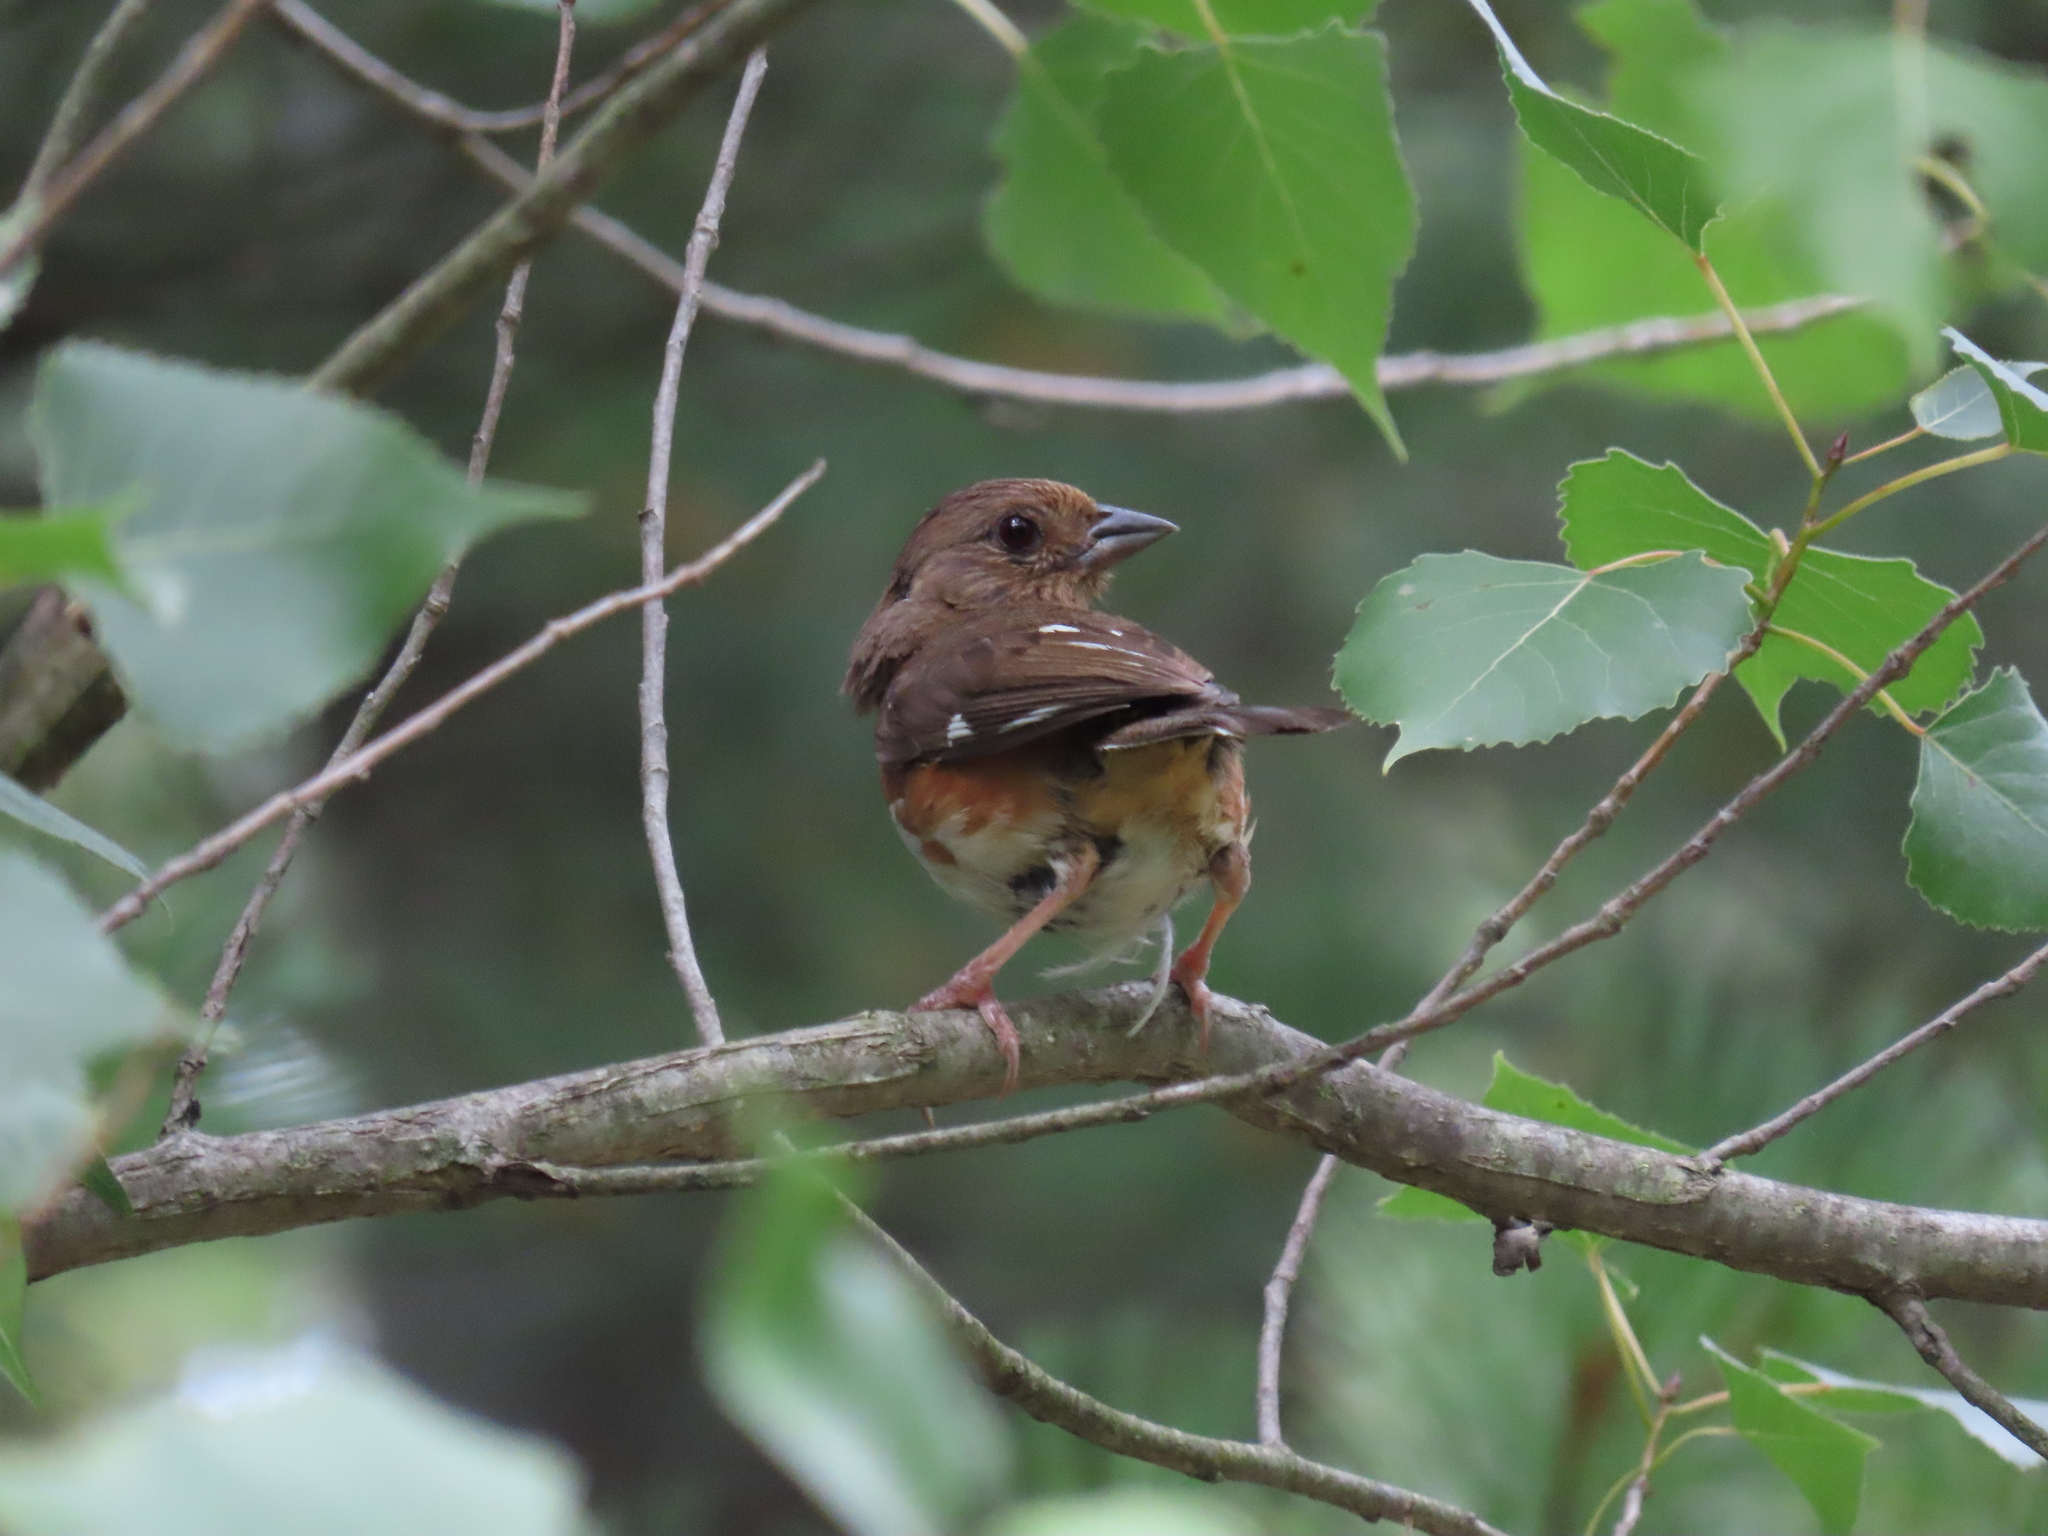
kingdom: Animalia
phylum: Chordata
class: Aves
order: Passeriformes
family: Passerellidae
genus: Pipilo
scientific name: Pipilo erythrophthalmus
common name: Eastern towhee
